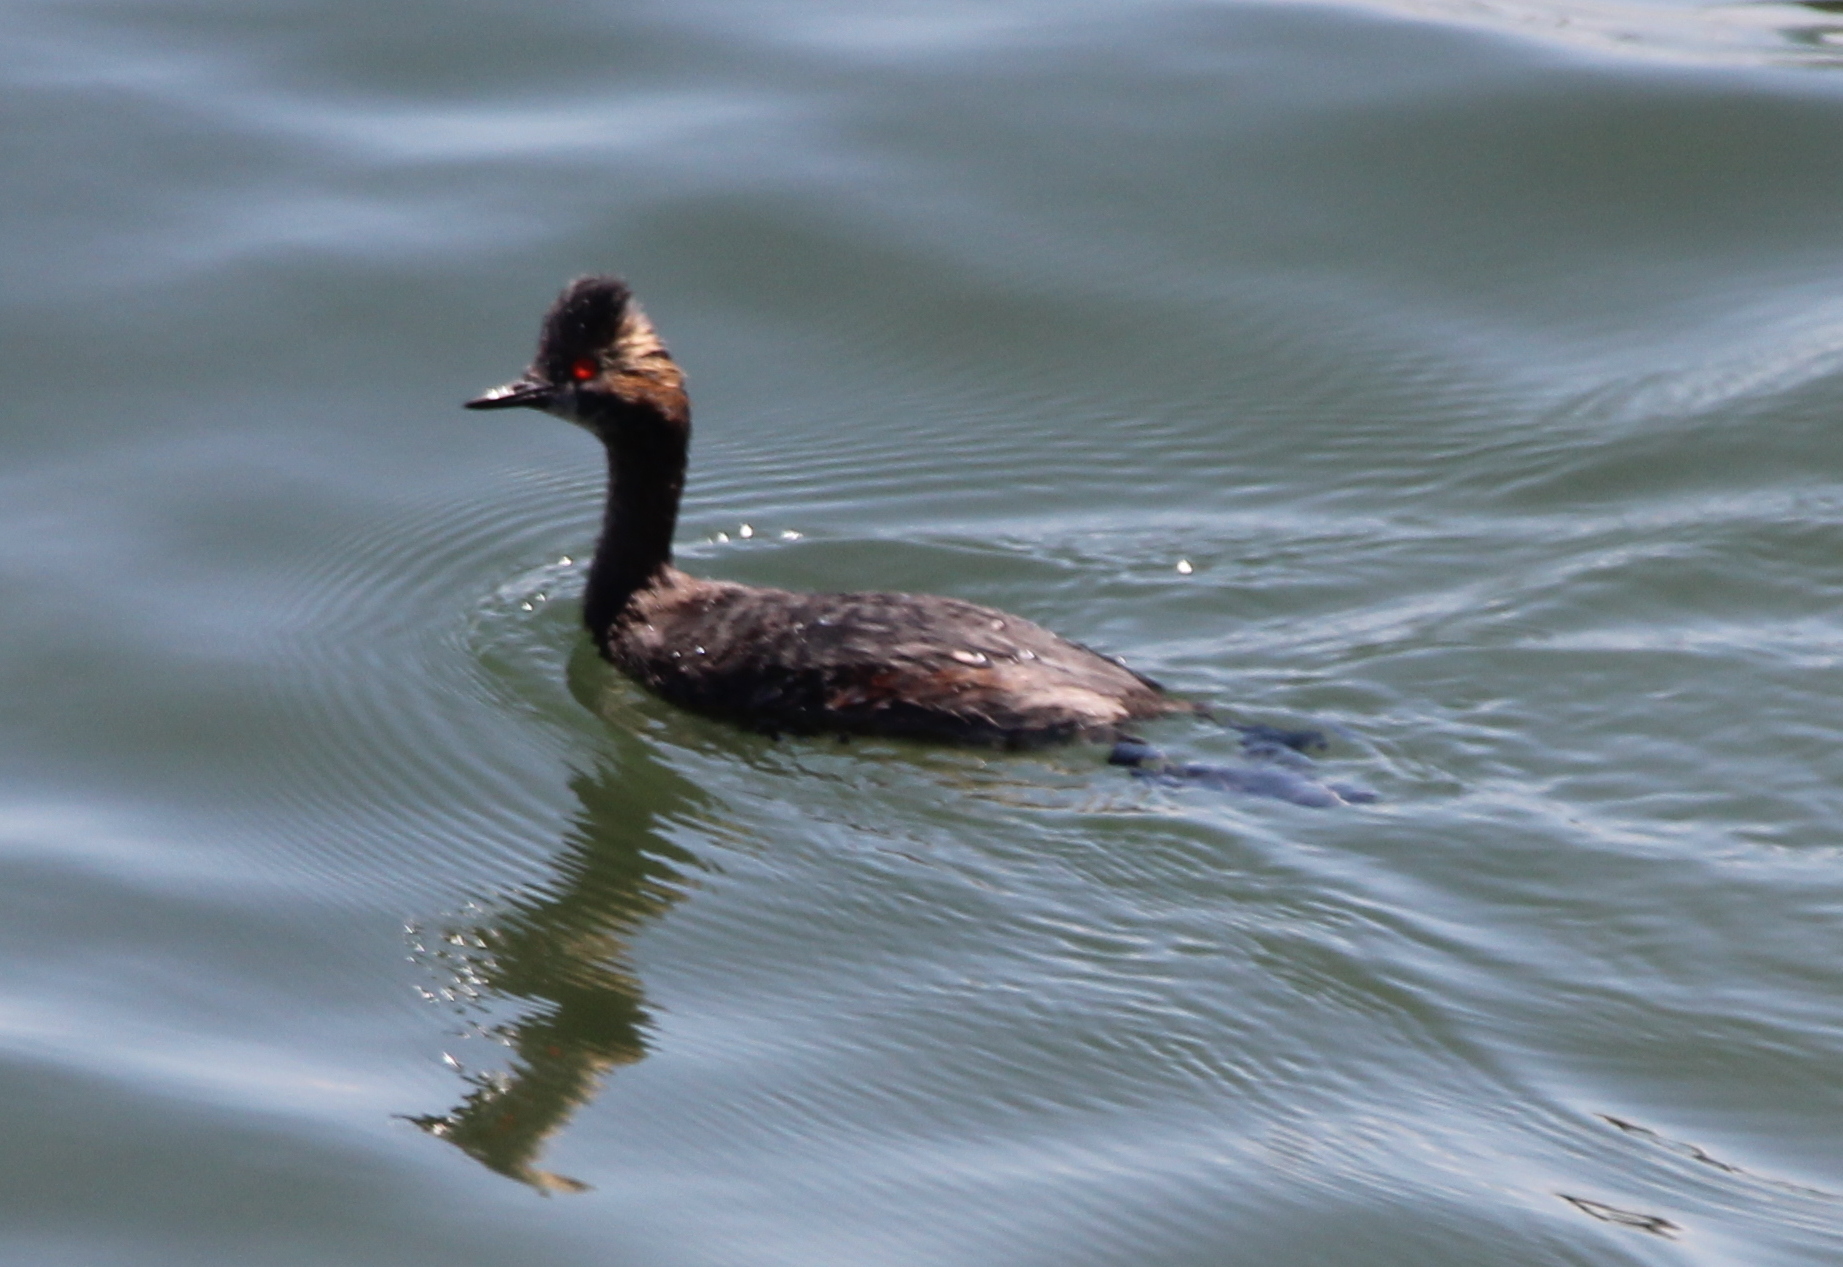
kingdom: Animalia
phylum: Chordata
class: Aves
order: Podicipediformes
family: Podicipedidae
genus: Podiceps
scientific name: Podiceps nigricollis
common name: Black-necked grebe
